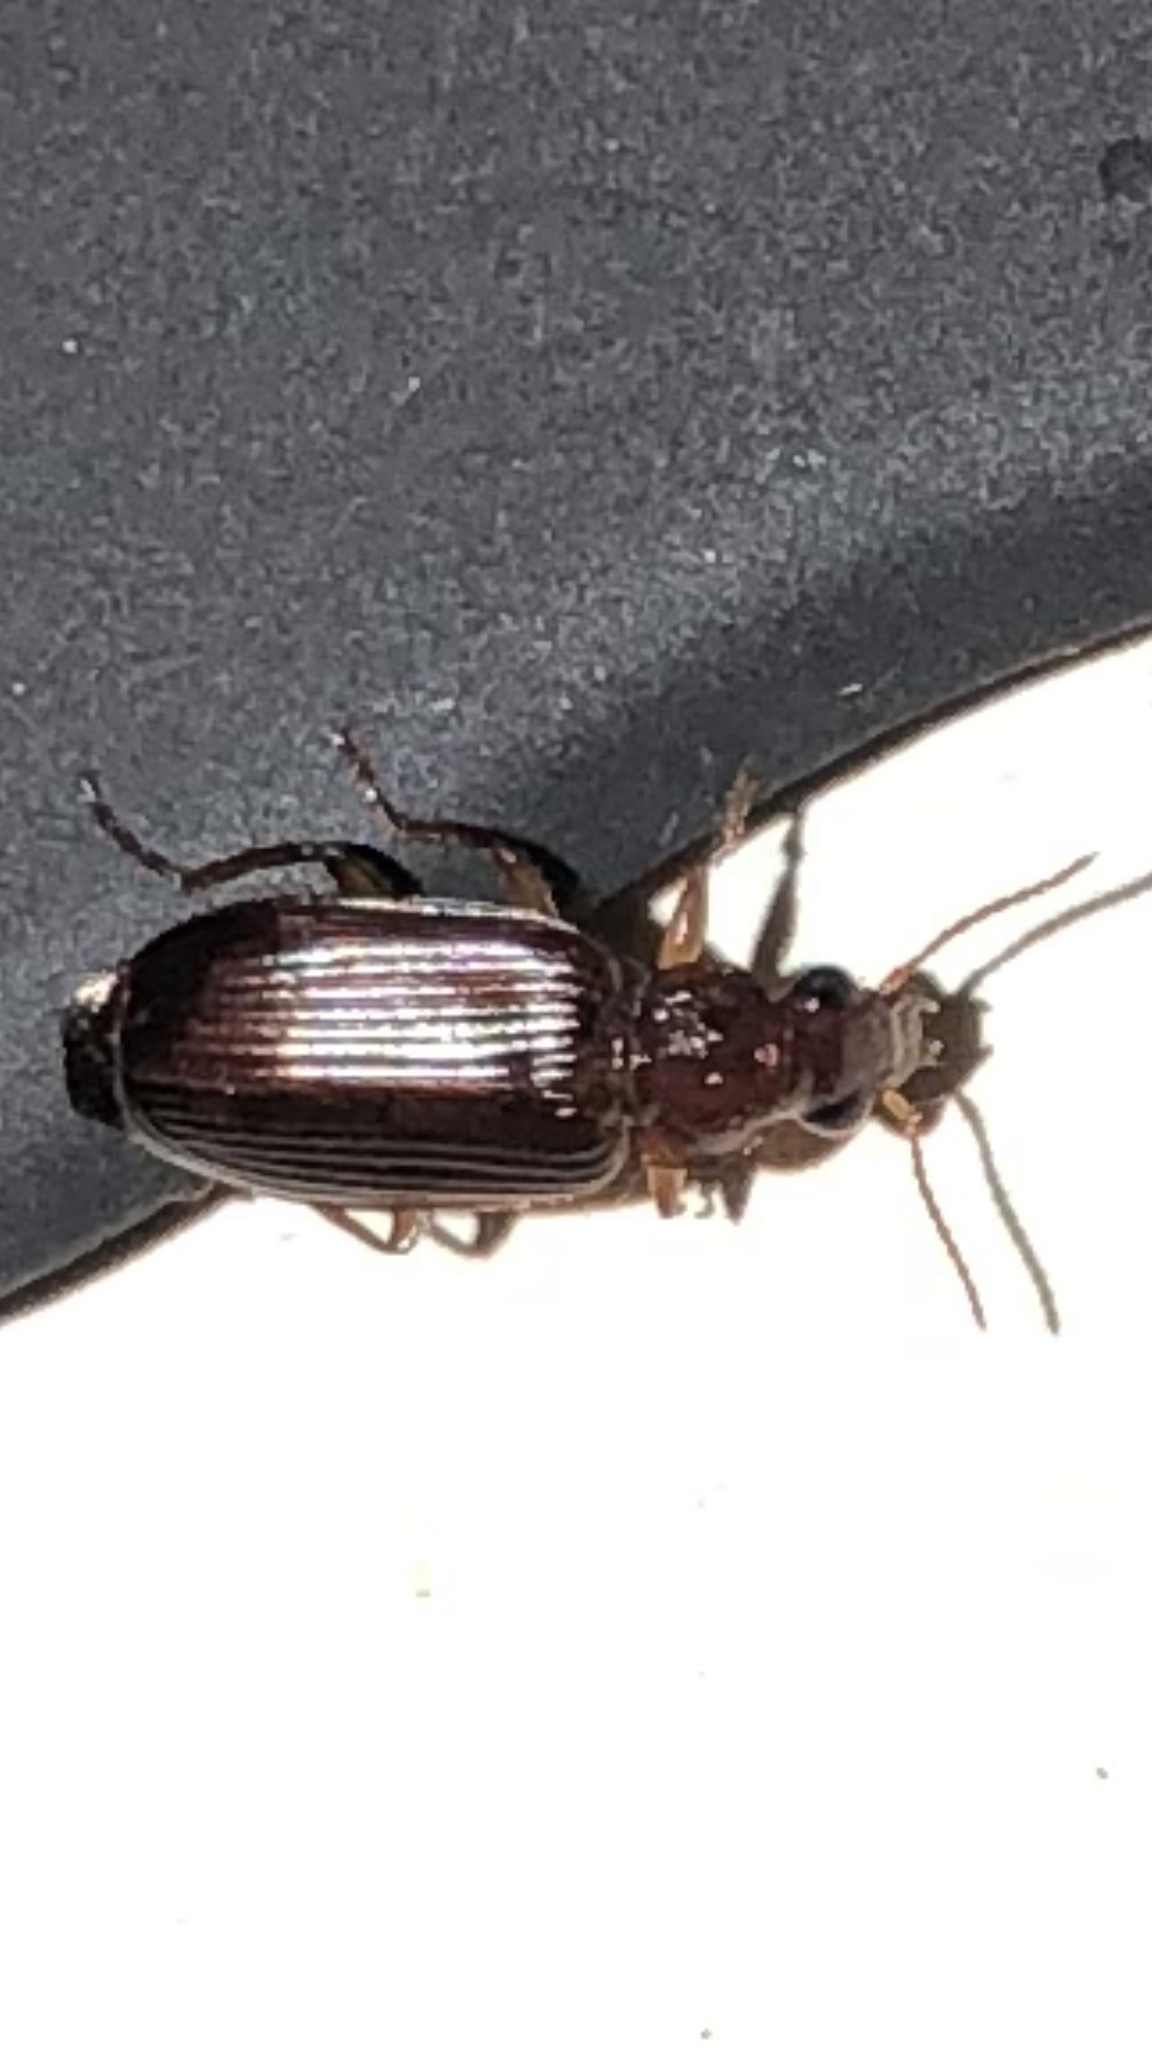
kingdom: Animalia
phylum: Arthropoda
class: Insecta
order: Coleoptera
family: Carabidae
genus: Plochionus
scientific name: Plochionus timidus
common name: Timid harp ground beetle
